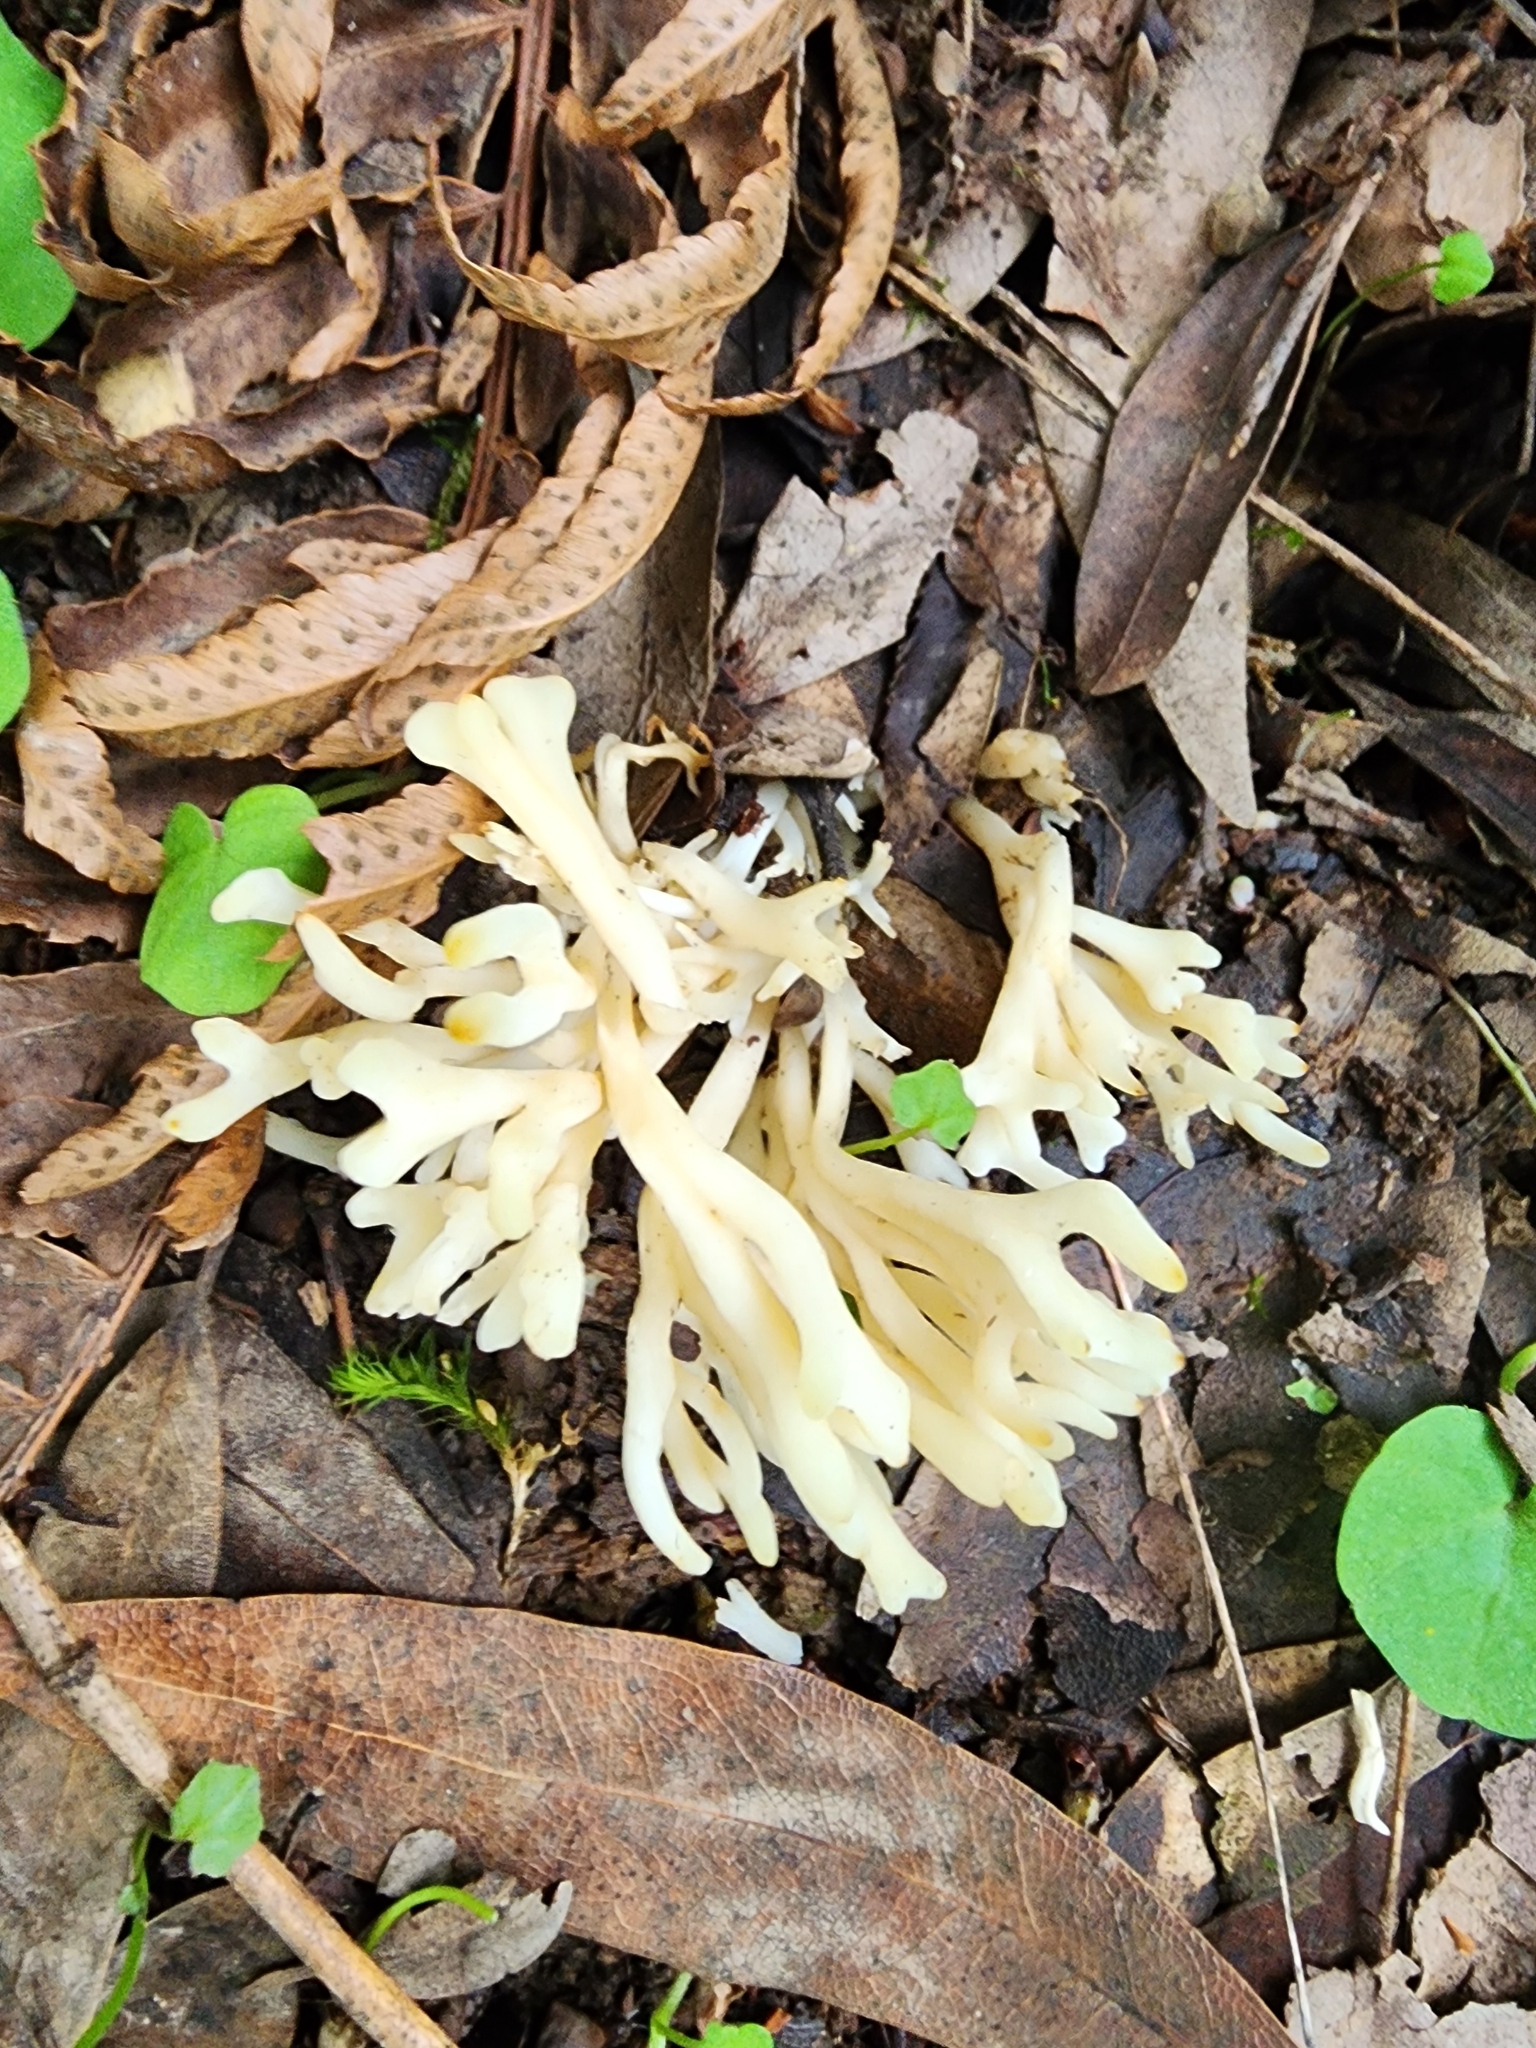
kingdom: Fungi
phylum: Basidiomycota
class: Agaricomycetes
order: Cantharellales
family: Hydnaceae
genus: Clavulina
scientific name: Clavulina rugosa
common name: Wrinkled club
